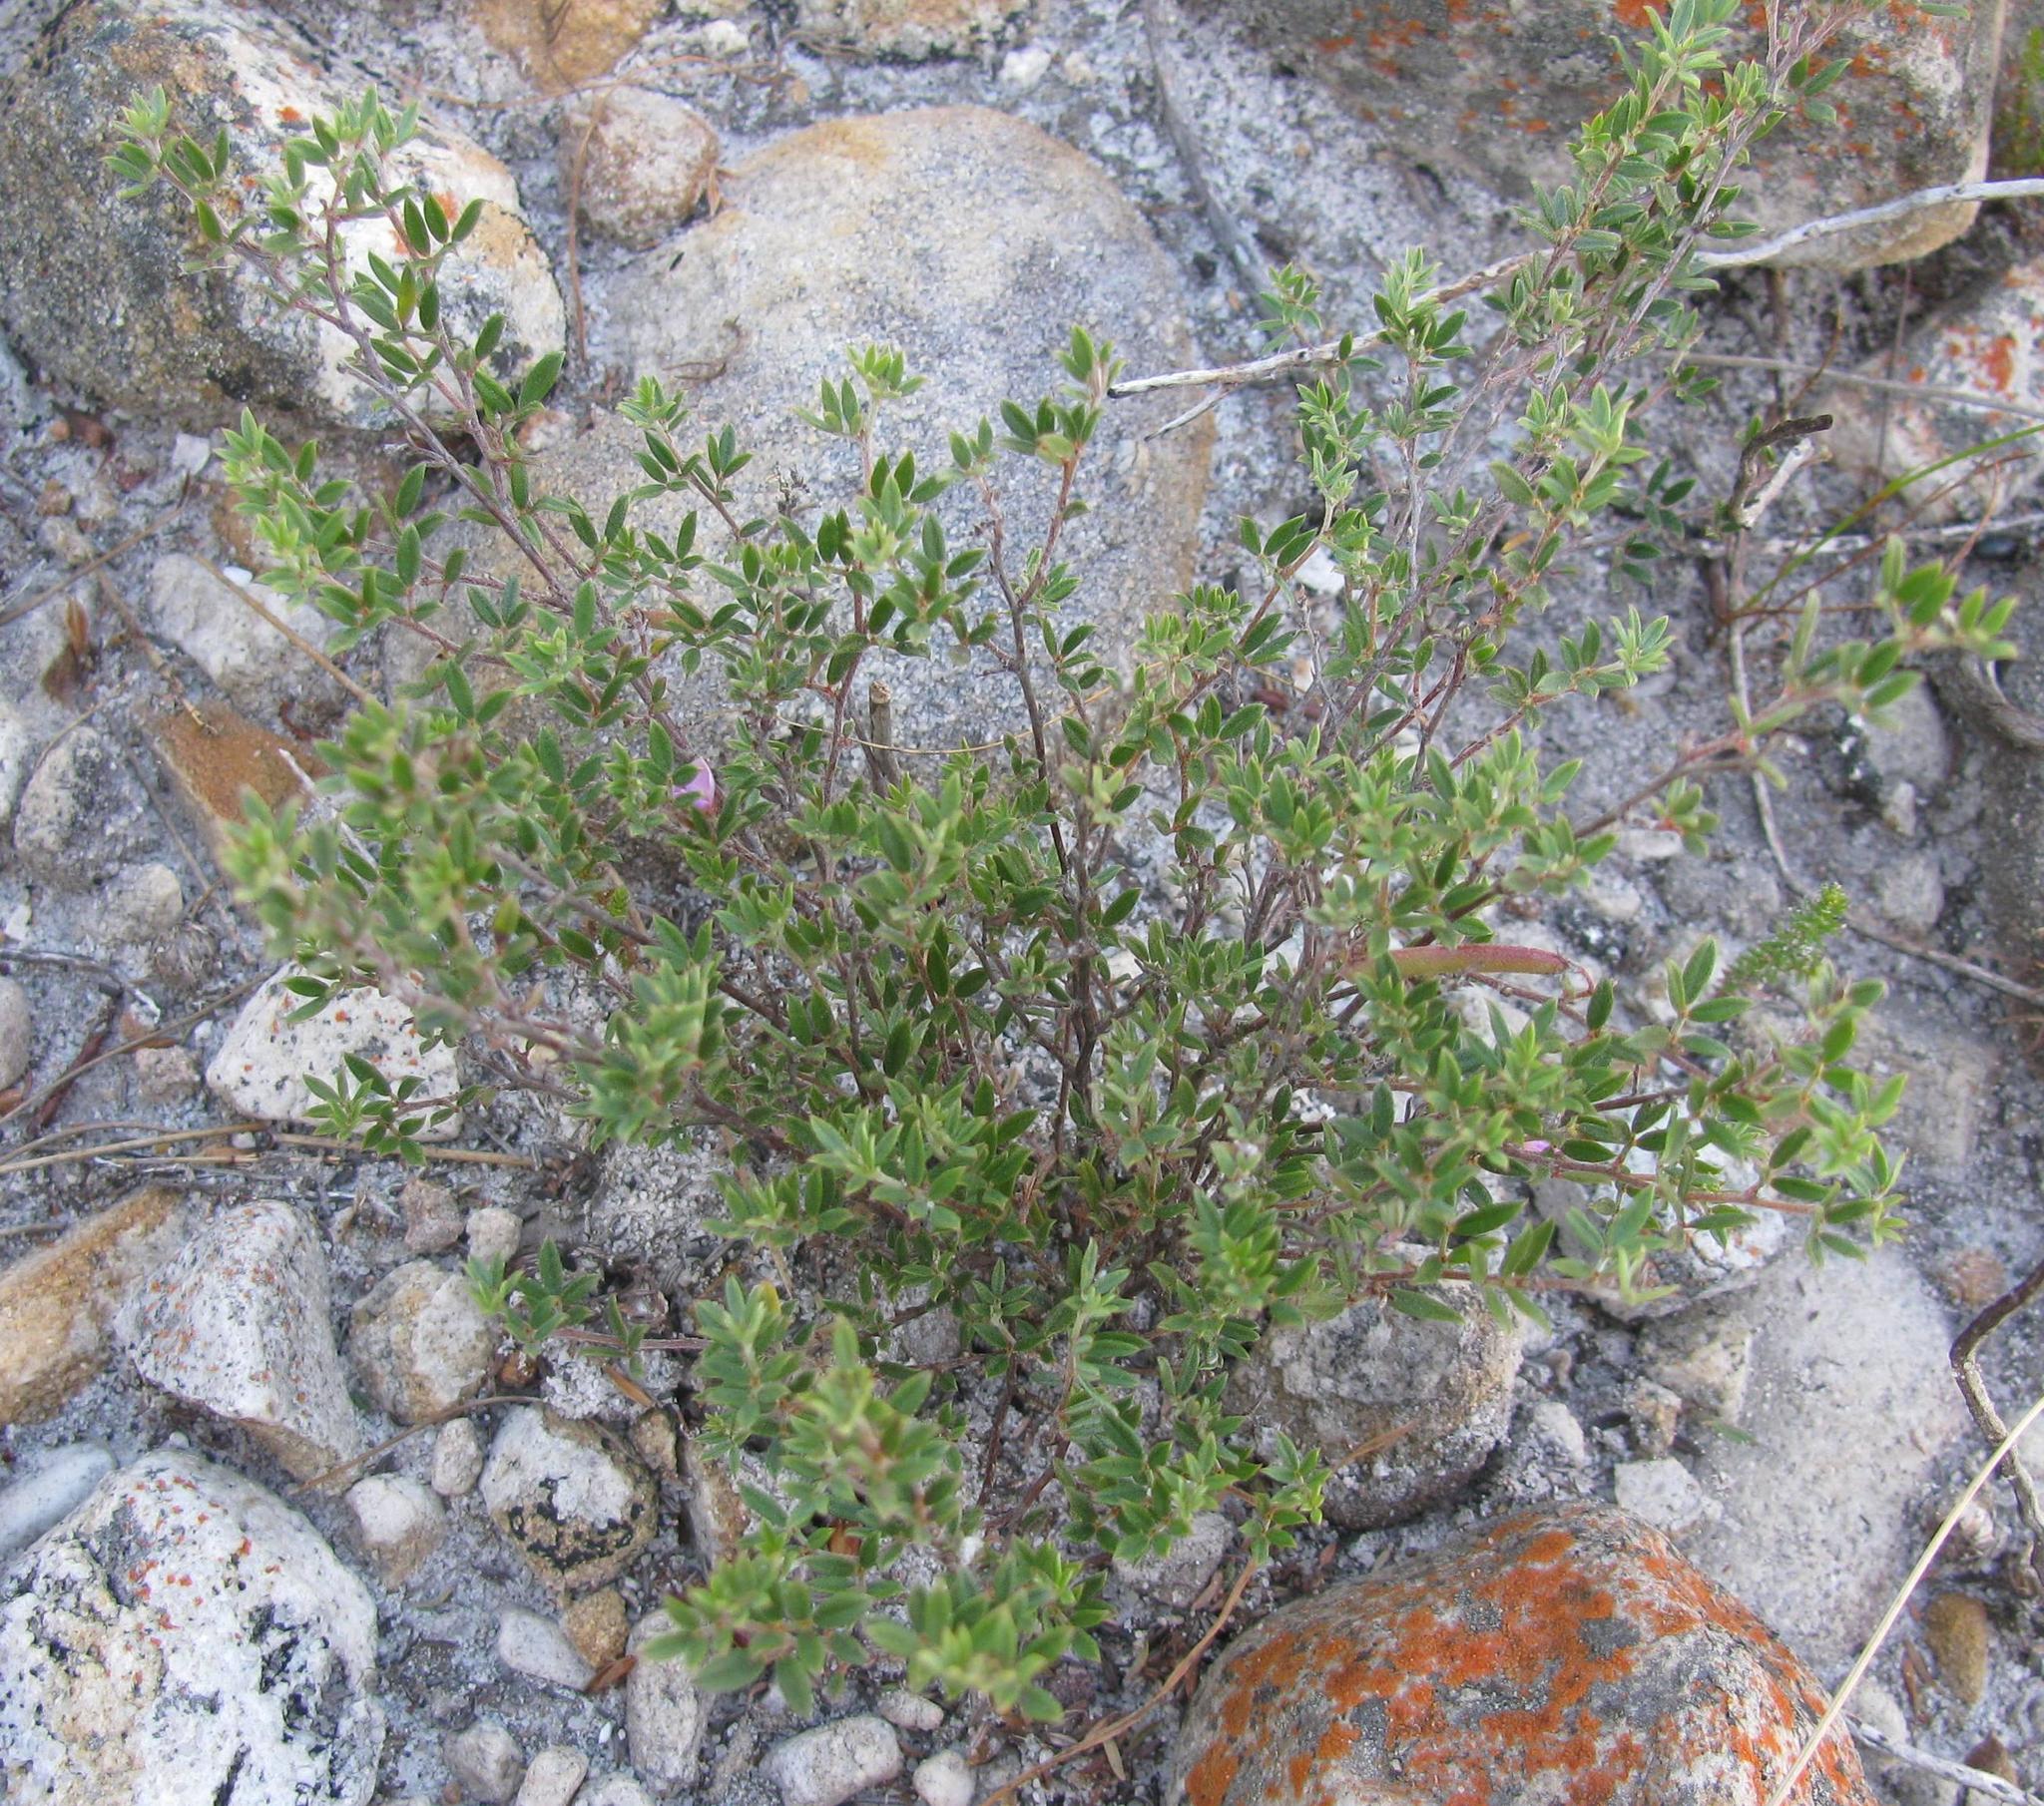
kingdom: Plantae
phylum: Tracheophyta
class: Magnoliopsida
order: Fabales
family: Fabaceae
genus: Indigofera
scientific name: Indigofera pilgeriana
